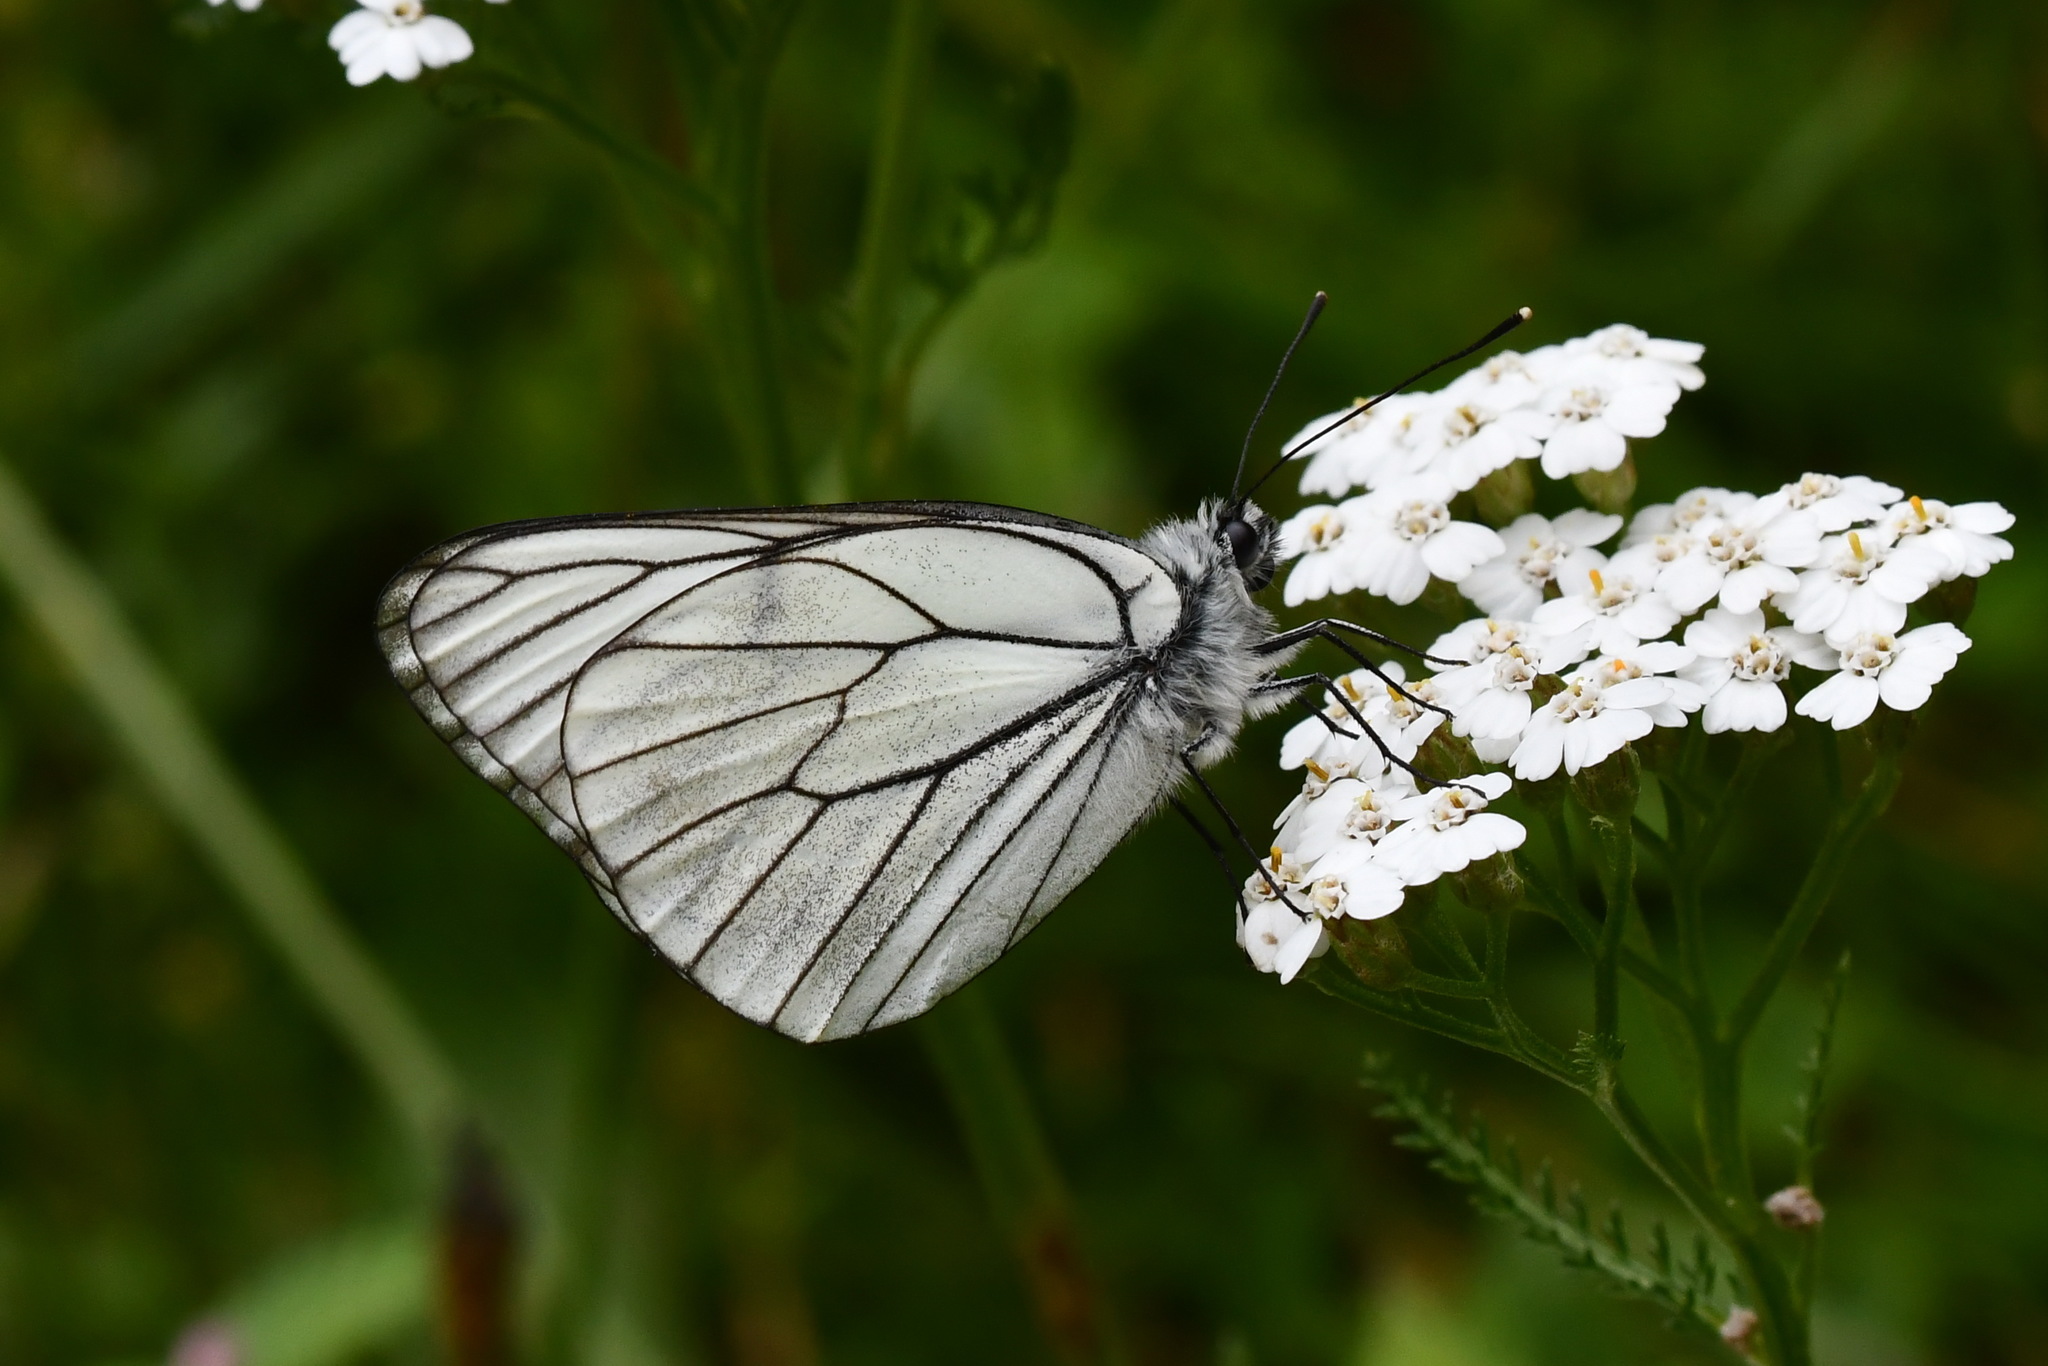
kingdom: Animalia
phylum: Arthropoda
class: Insecta
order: Lepidoptera
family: Pieridae
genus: Aporia
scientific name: Aporia crataegi
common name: Black-veined white
